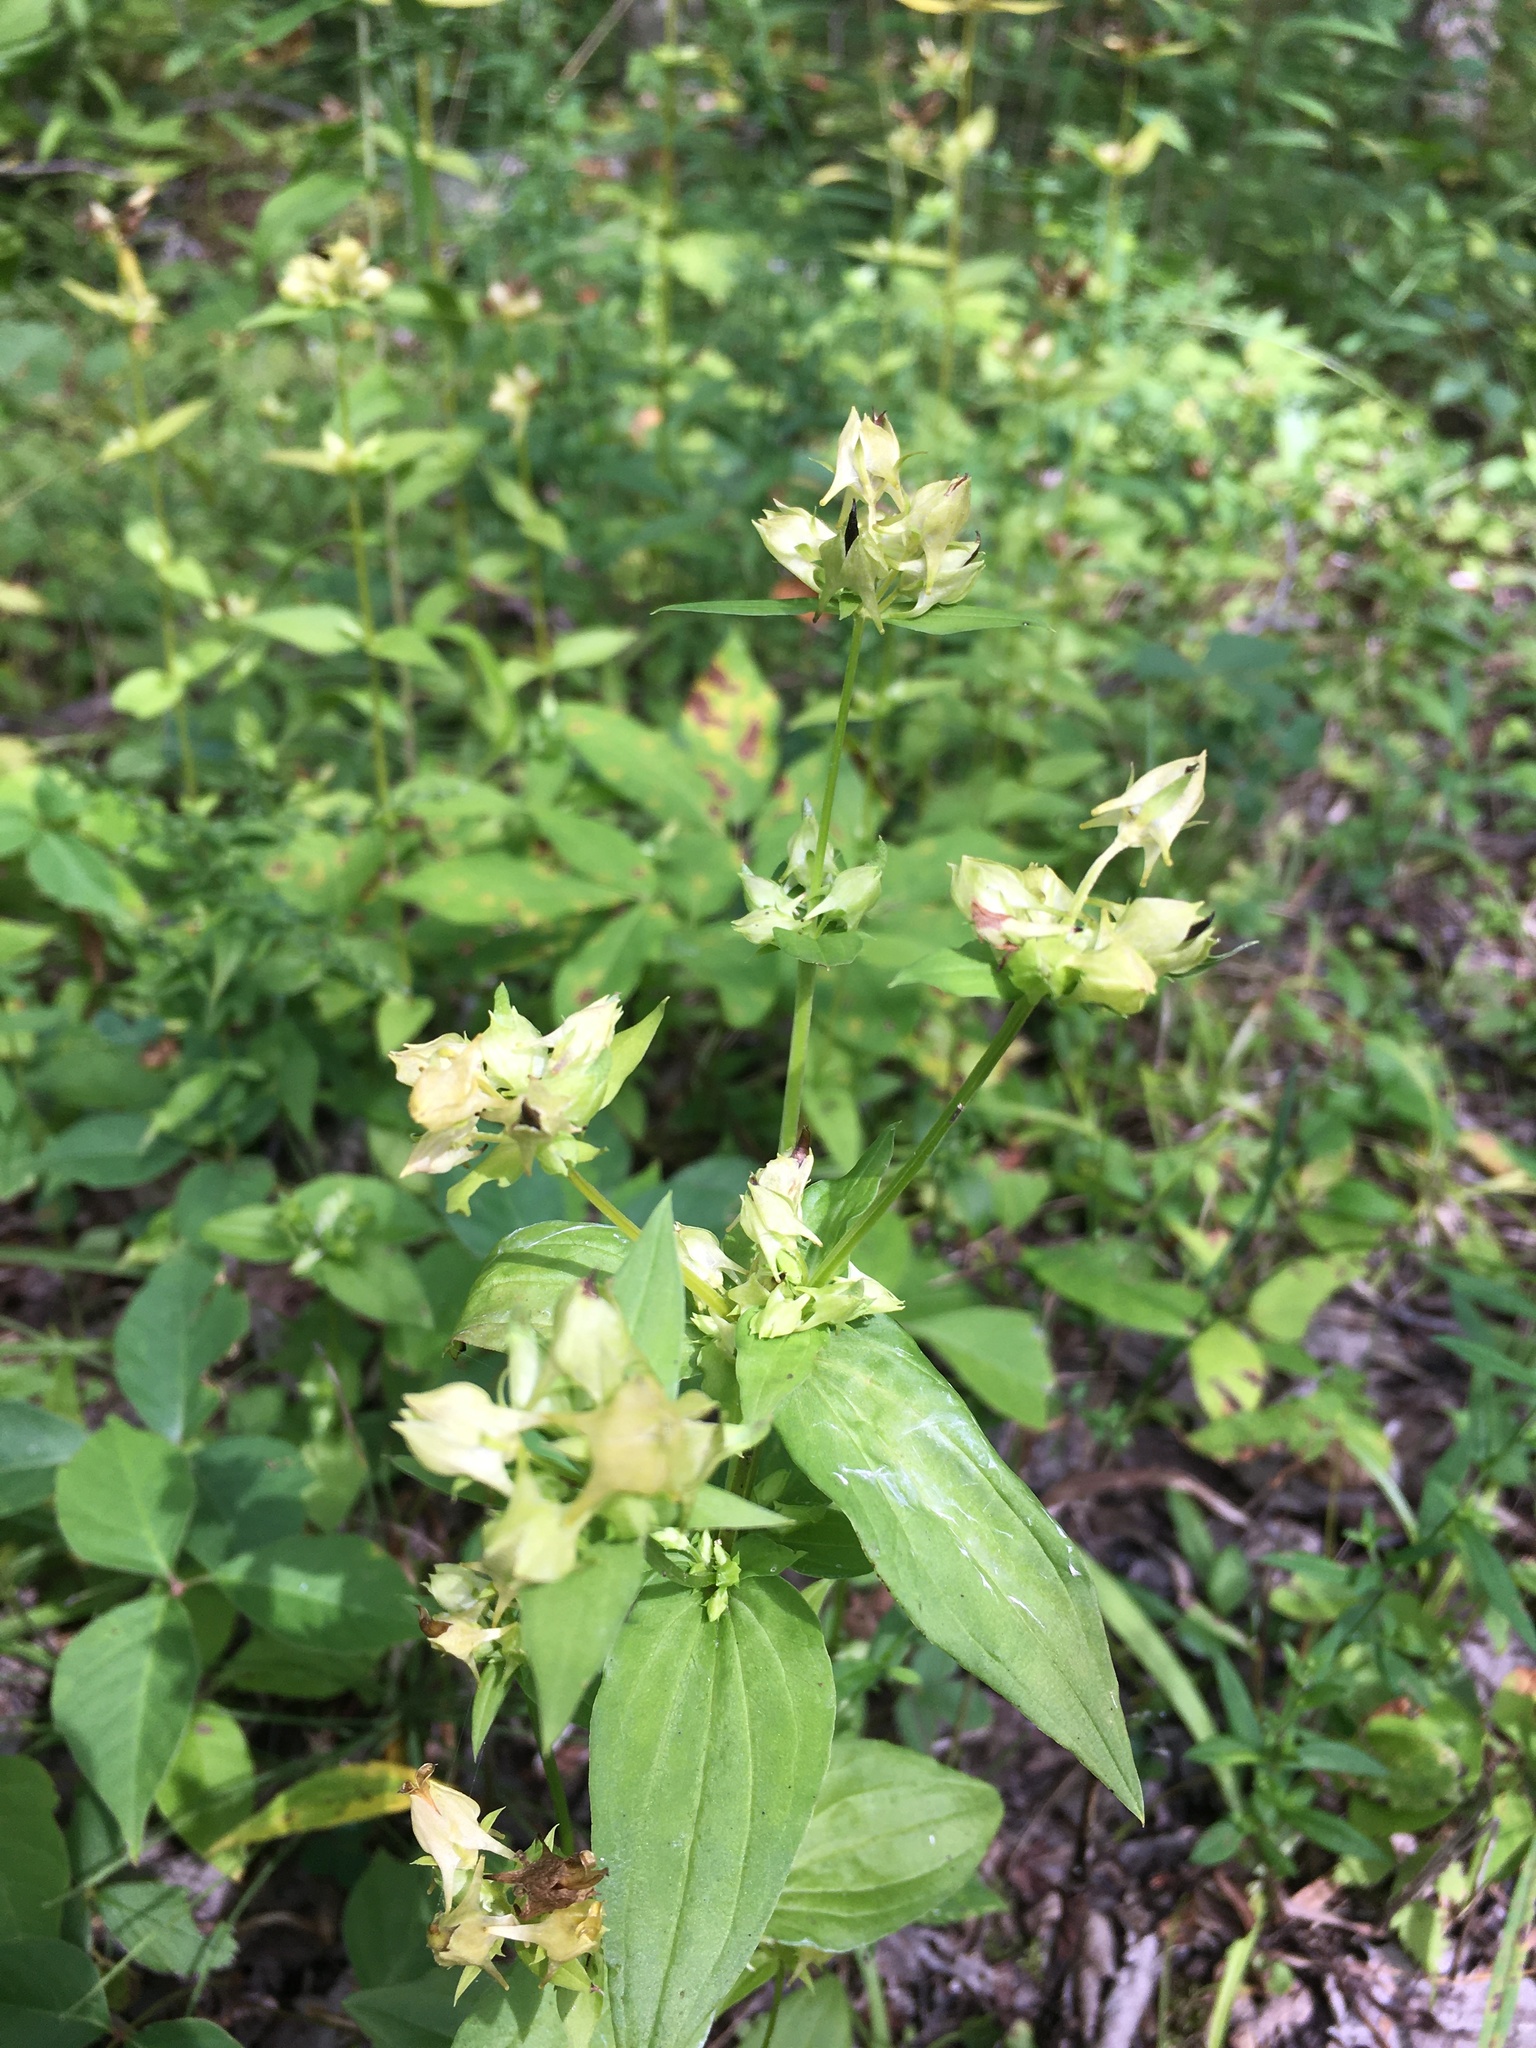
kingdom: Plantae
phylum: Tracheophyta
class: Magnoliopsida
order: Gentianales
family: Gentianaceae
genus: Halenia
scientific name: Halenia deflexa
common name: American spurred gentian
